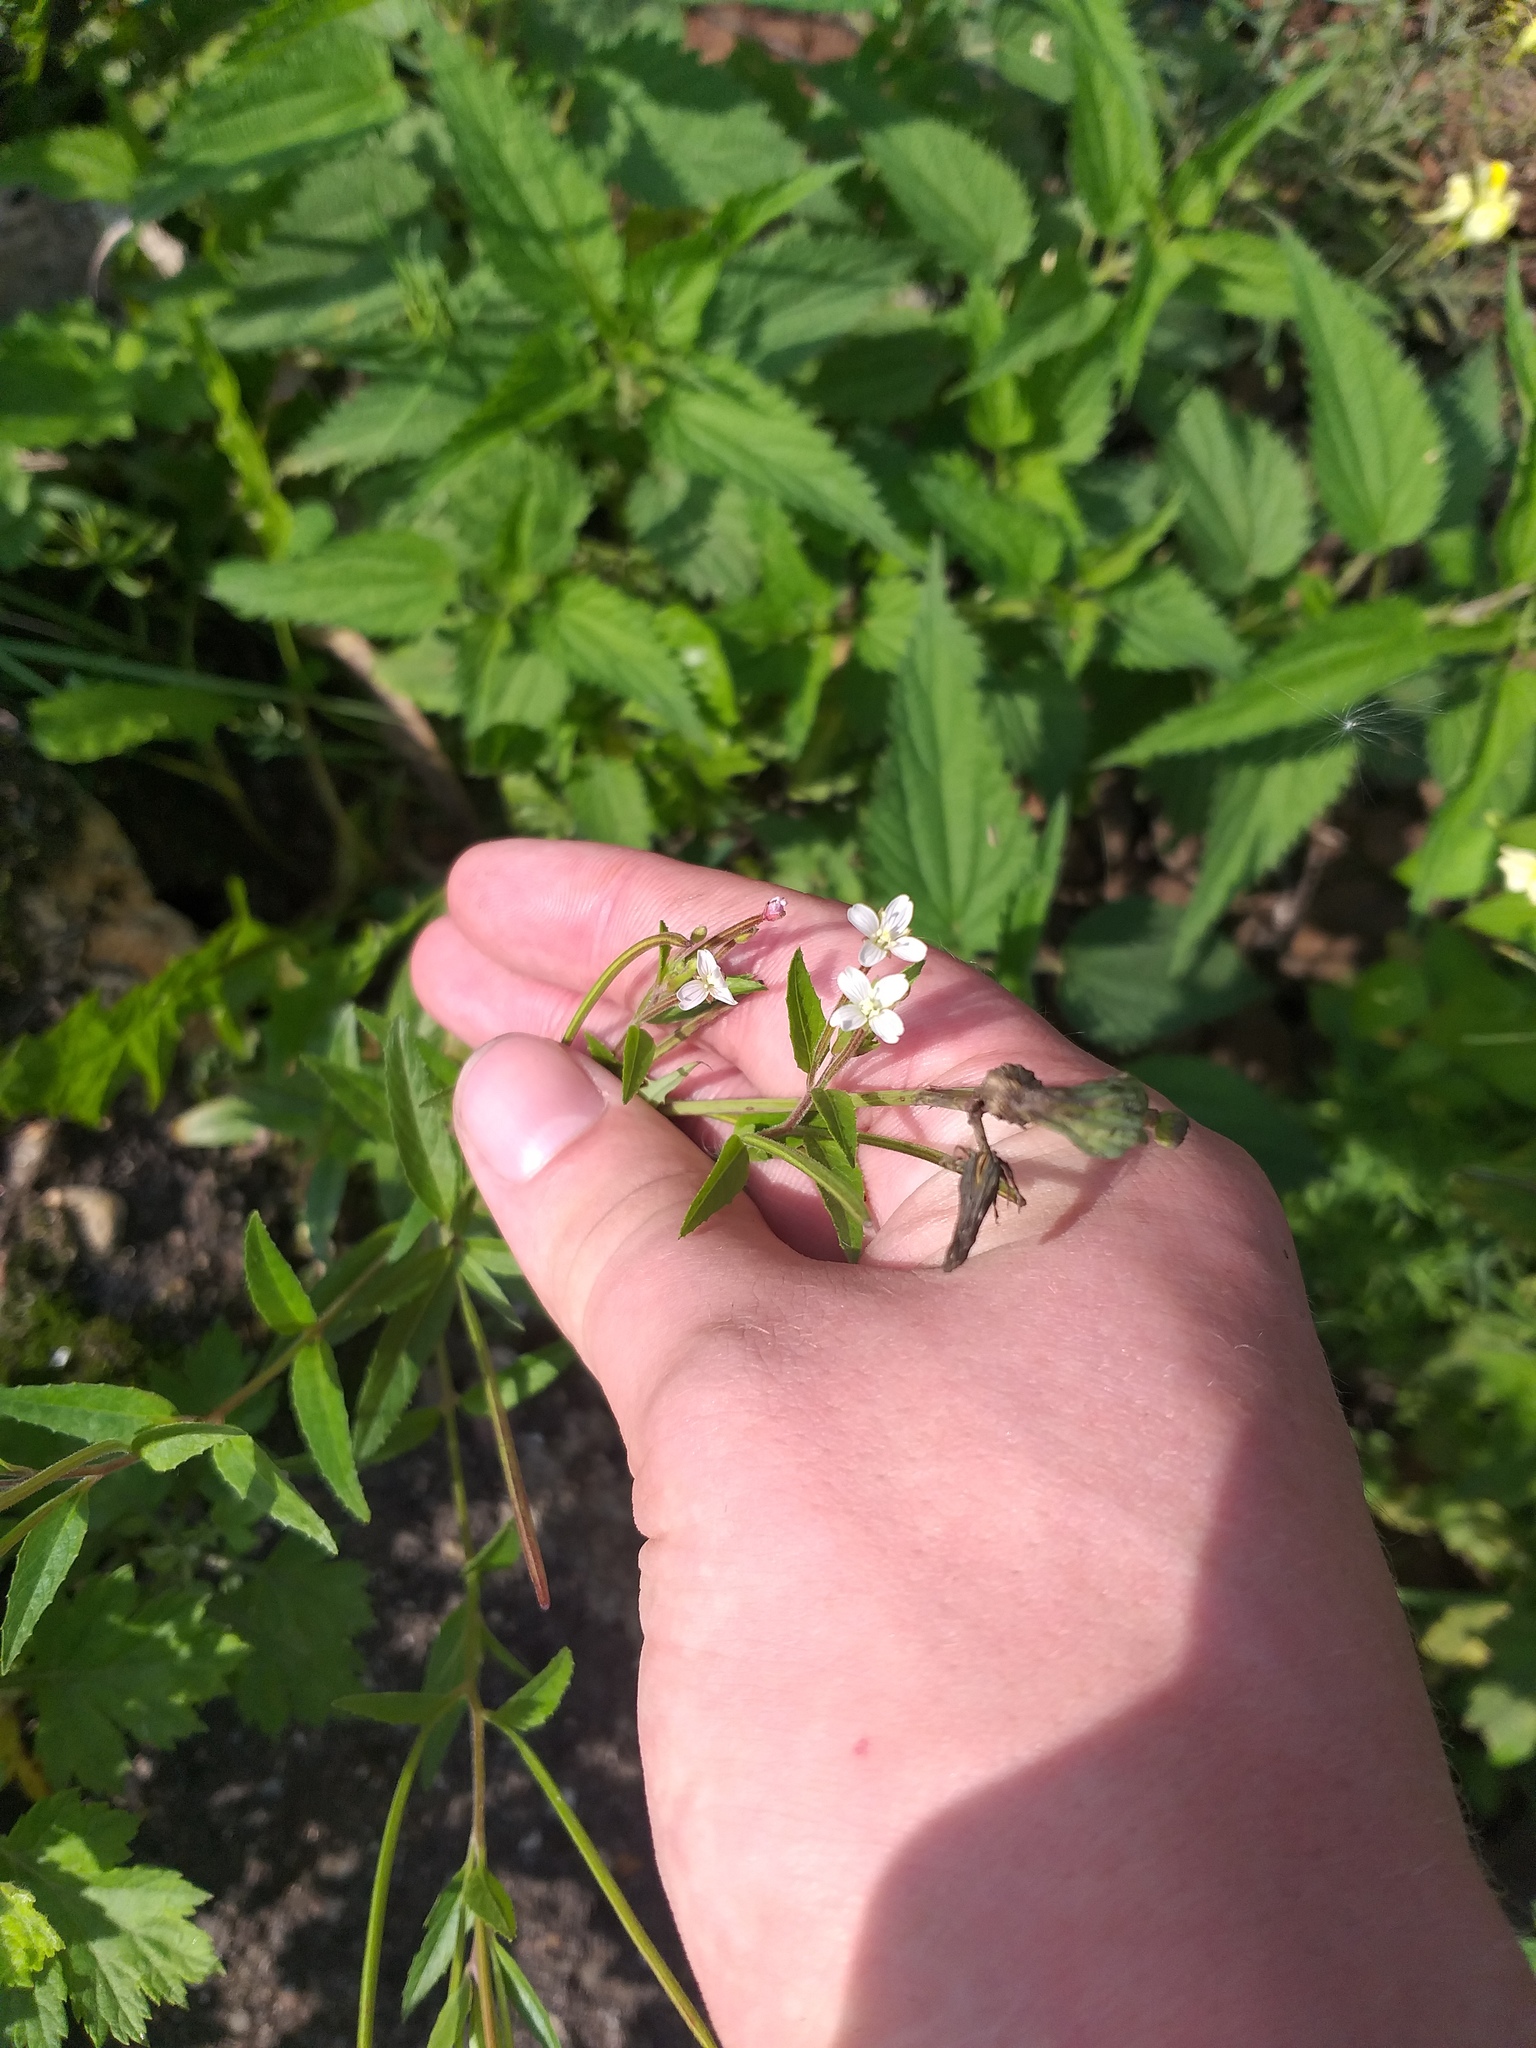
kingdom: Plantae
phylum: Tracheophyta
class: Magnoliopsida
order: Myrtales
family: Onagraceae
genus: Epilobium
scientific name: Epilobium pseudorubescens
